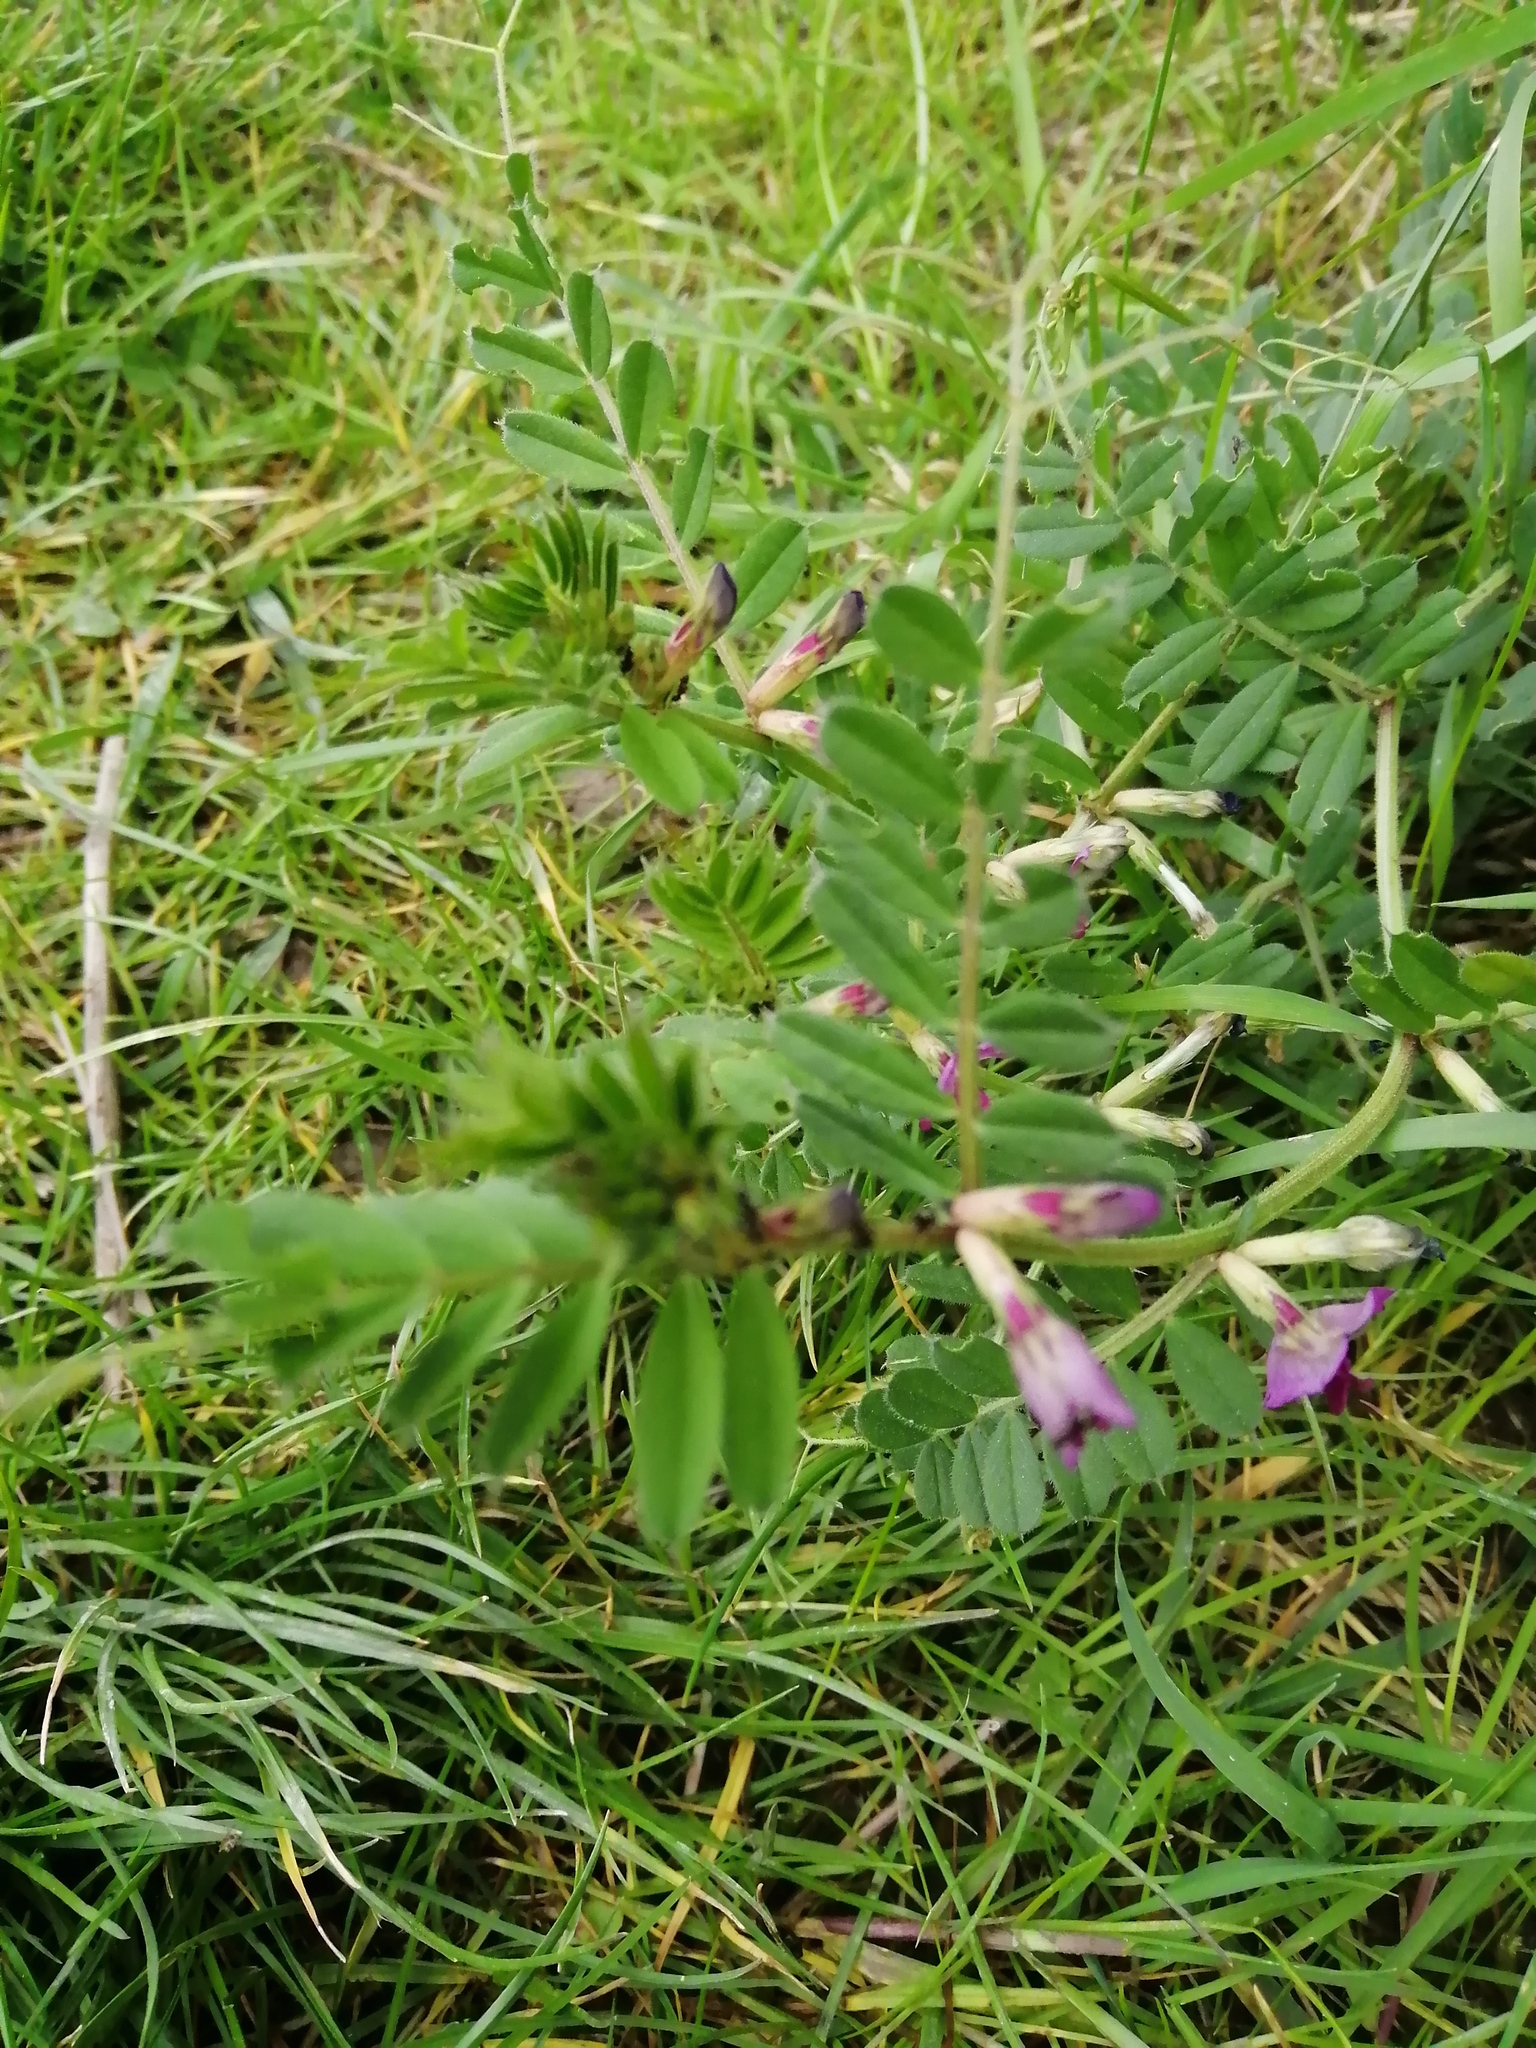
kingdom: Plantae
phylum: Tracheophyta
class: Magnoliopsida
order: Fabales
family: Fabaceae
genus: Vicia
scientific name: Vicia sativa
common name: Garden vetch
